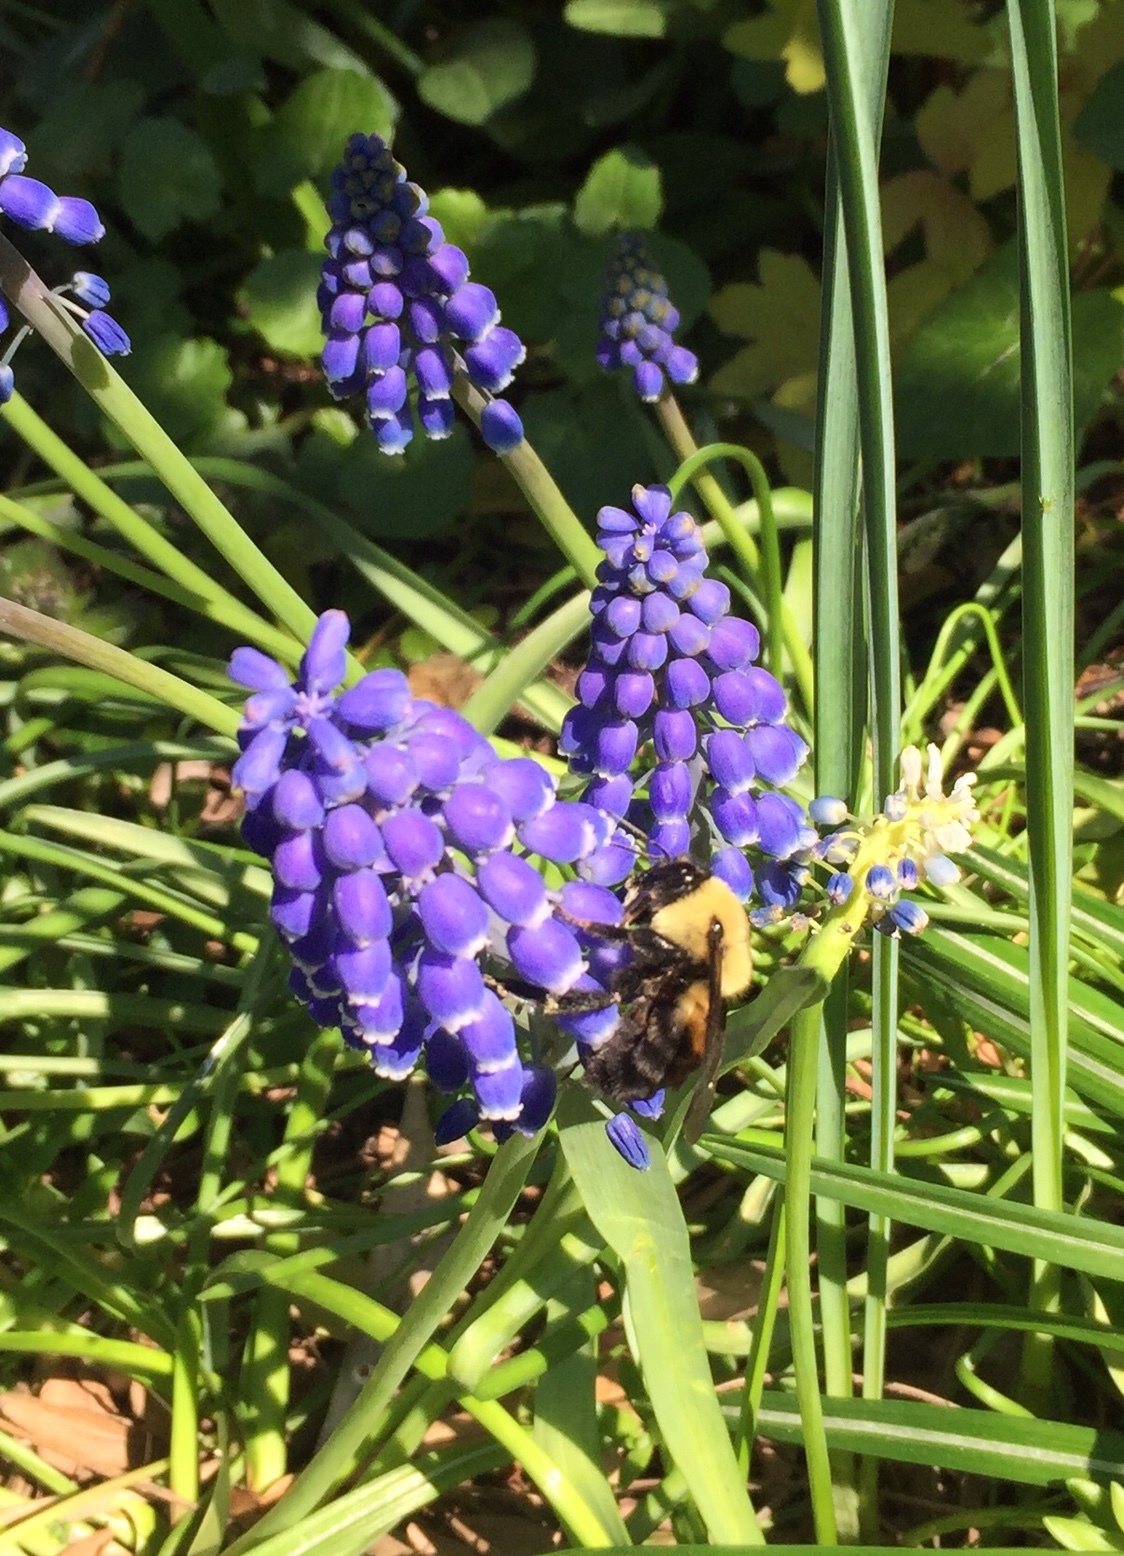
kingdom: Animalia
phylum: Arthropoda
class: Insecta
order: Hymenoptera
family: Apidae
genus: Bombus
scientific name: Bombus griseocollis
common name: Brown-belted bumble bee
